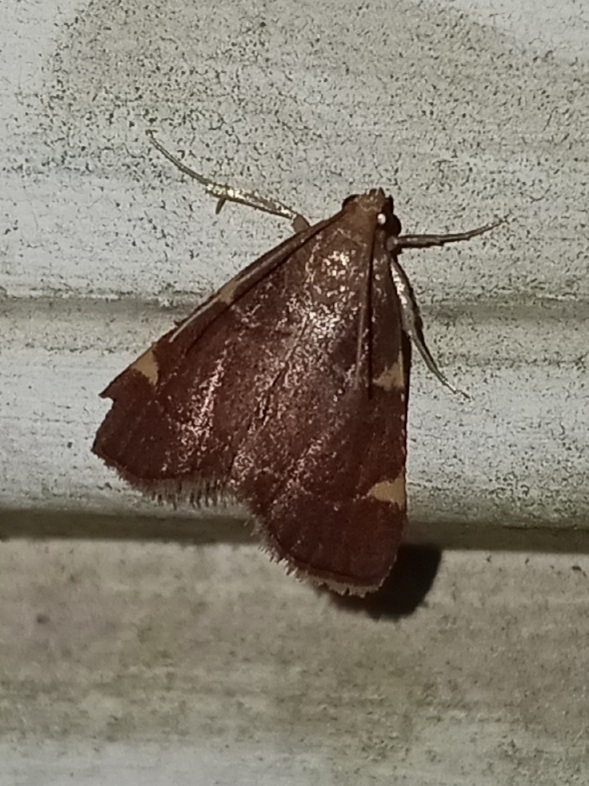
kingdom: Animalia
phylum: Arthropoda
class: Insecta
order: Lepidoptera
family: Pyralidae
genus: Hypsopygia
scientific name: Hypsopygia olinalis
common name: Yellow-fringed dolichomia moth
